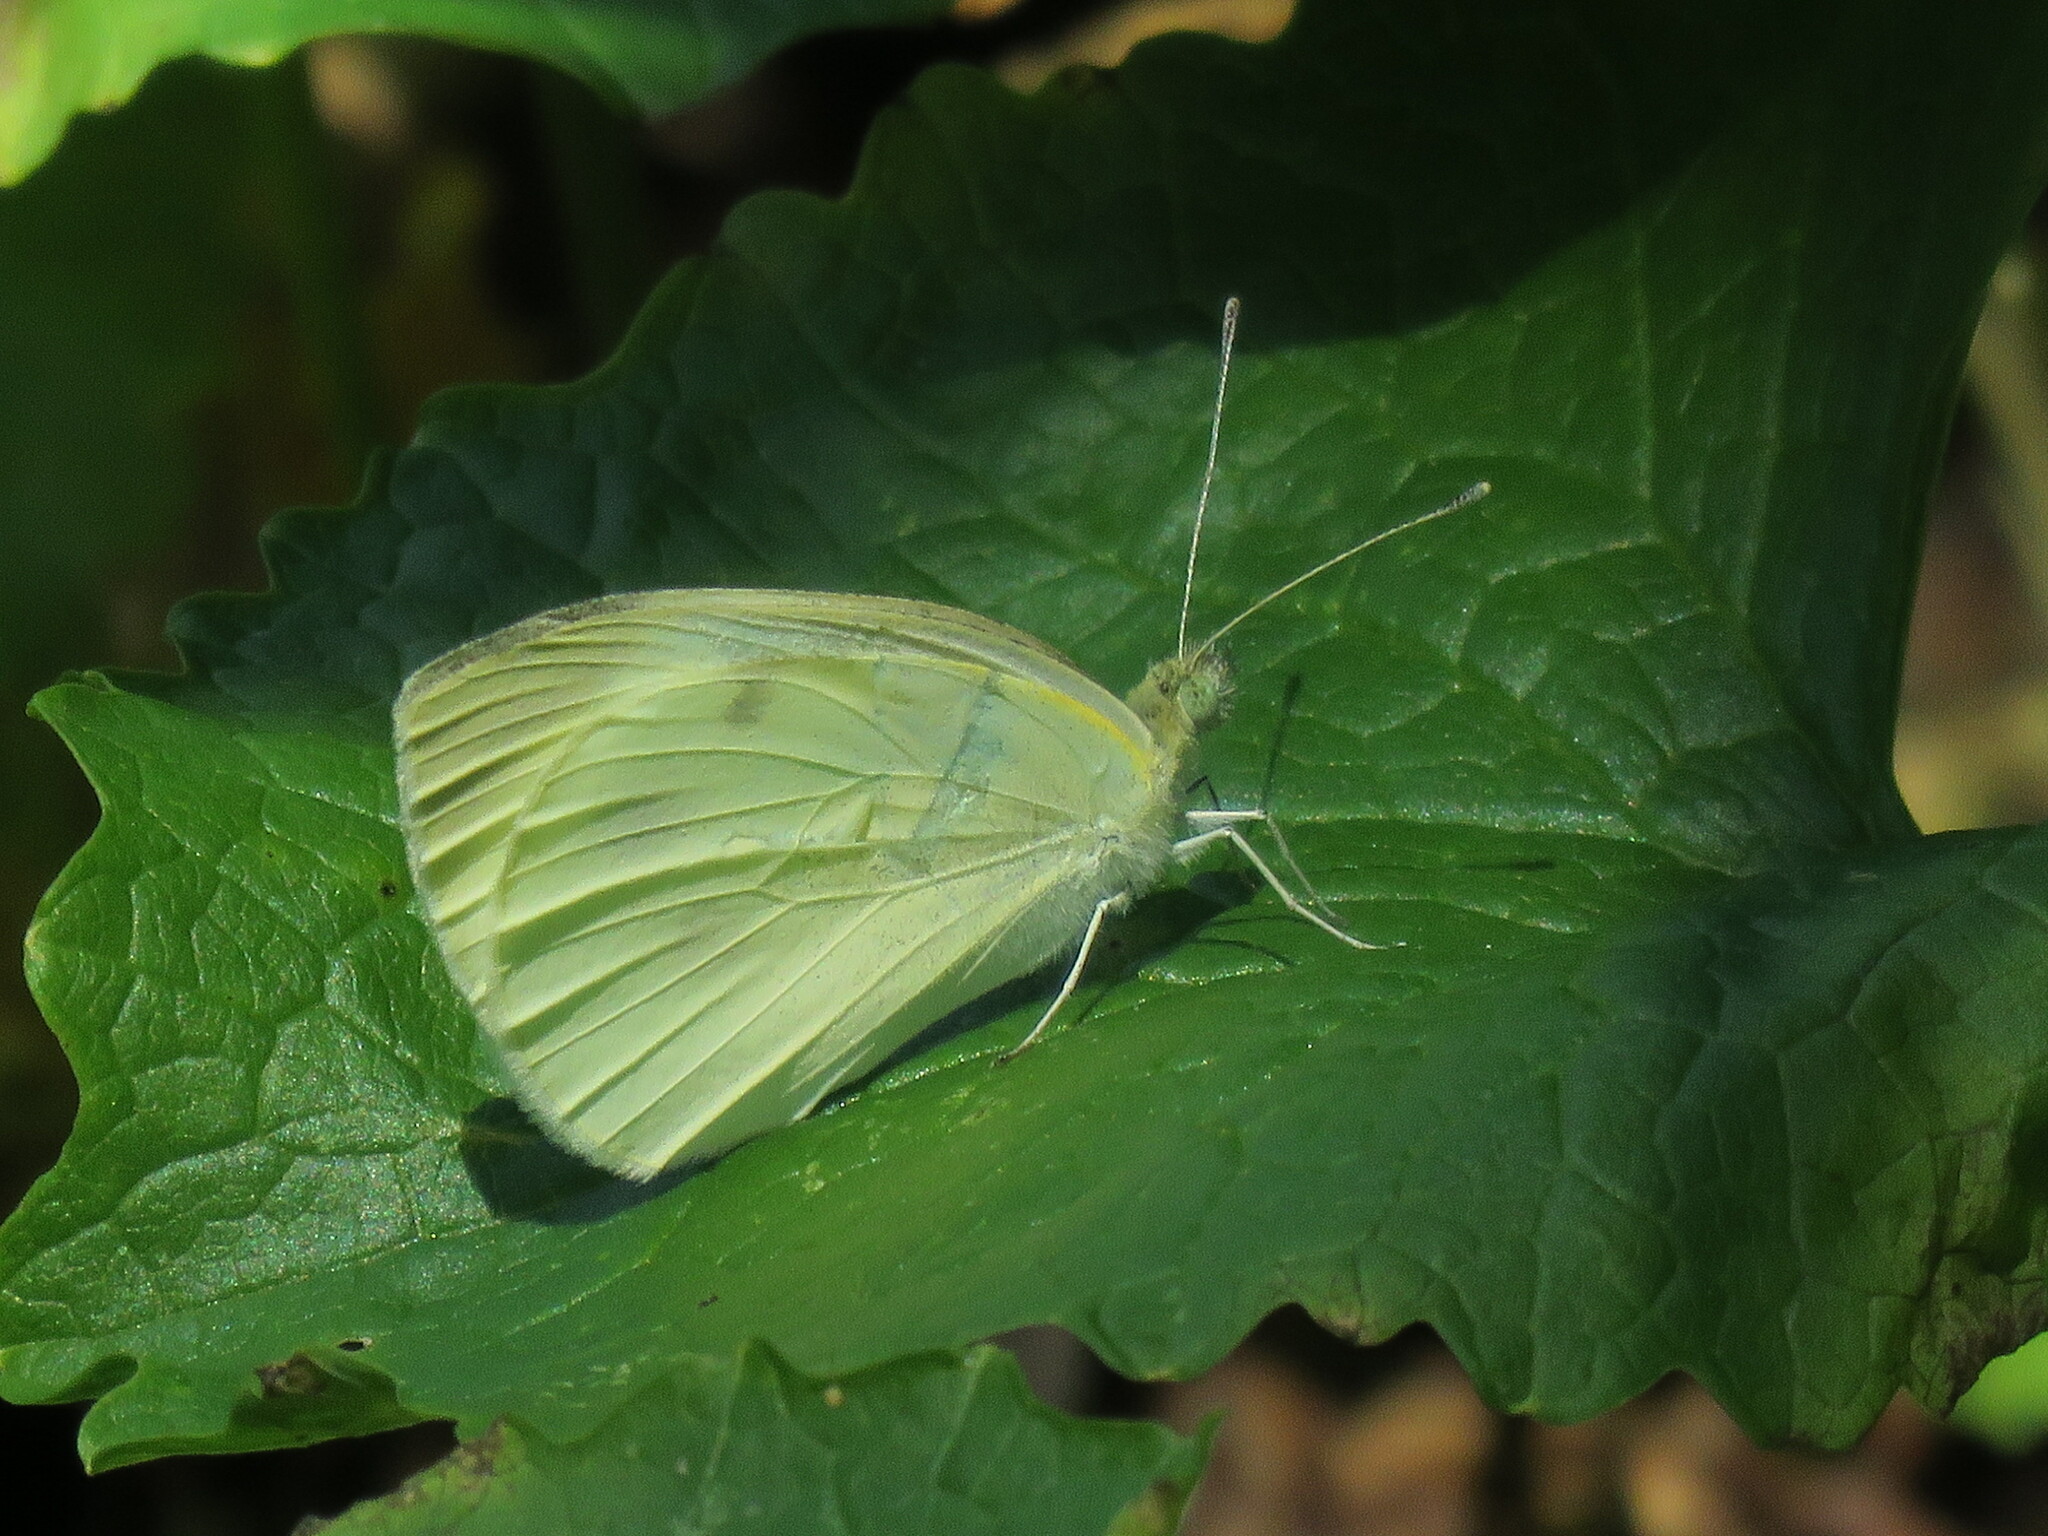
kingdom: Animalia
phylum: Arthropoda
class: Insecta
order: Lepidoptera
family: Pieridae
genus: Pieris
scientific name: Pieris rapae
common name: Small white
